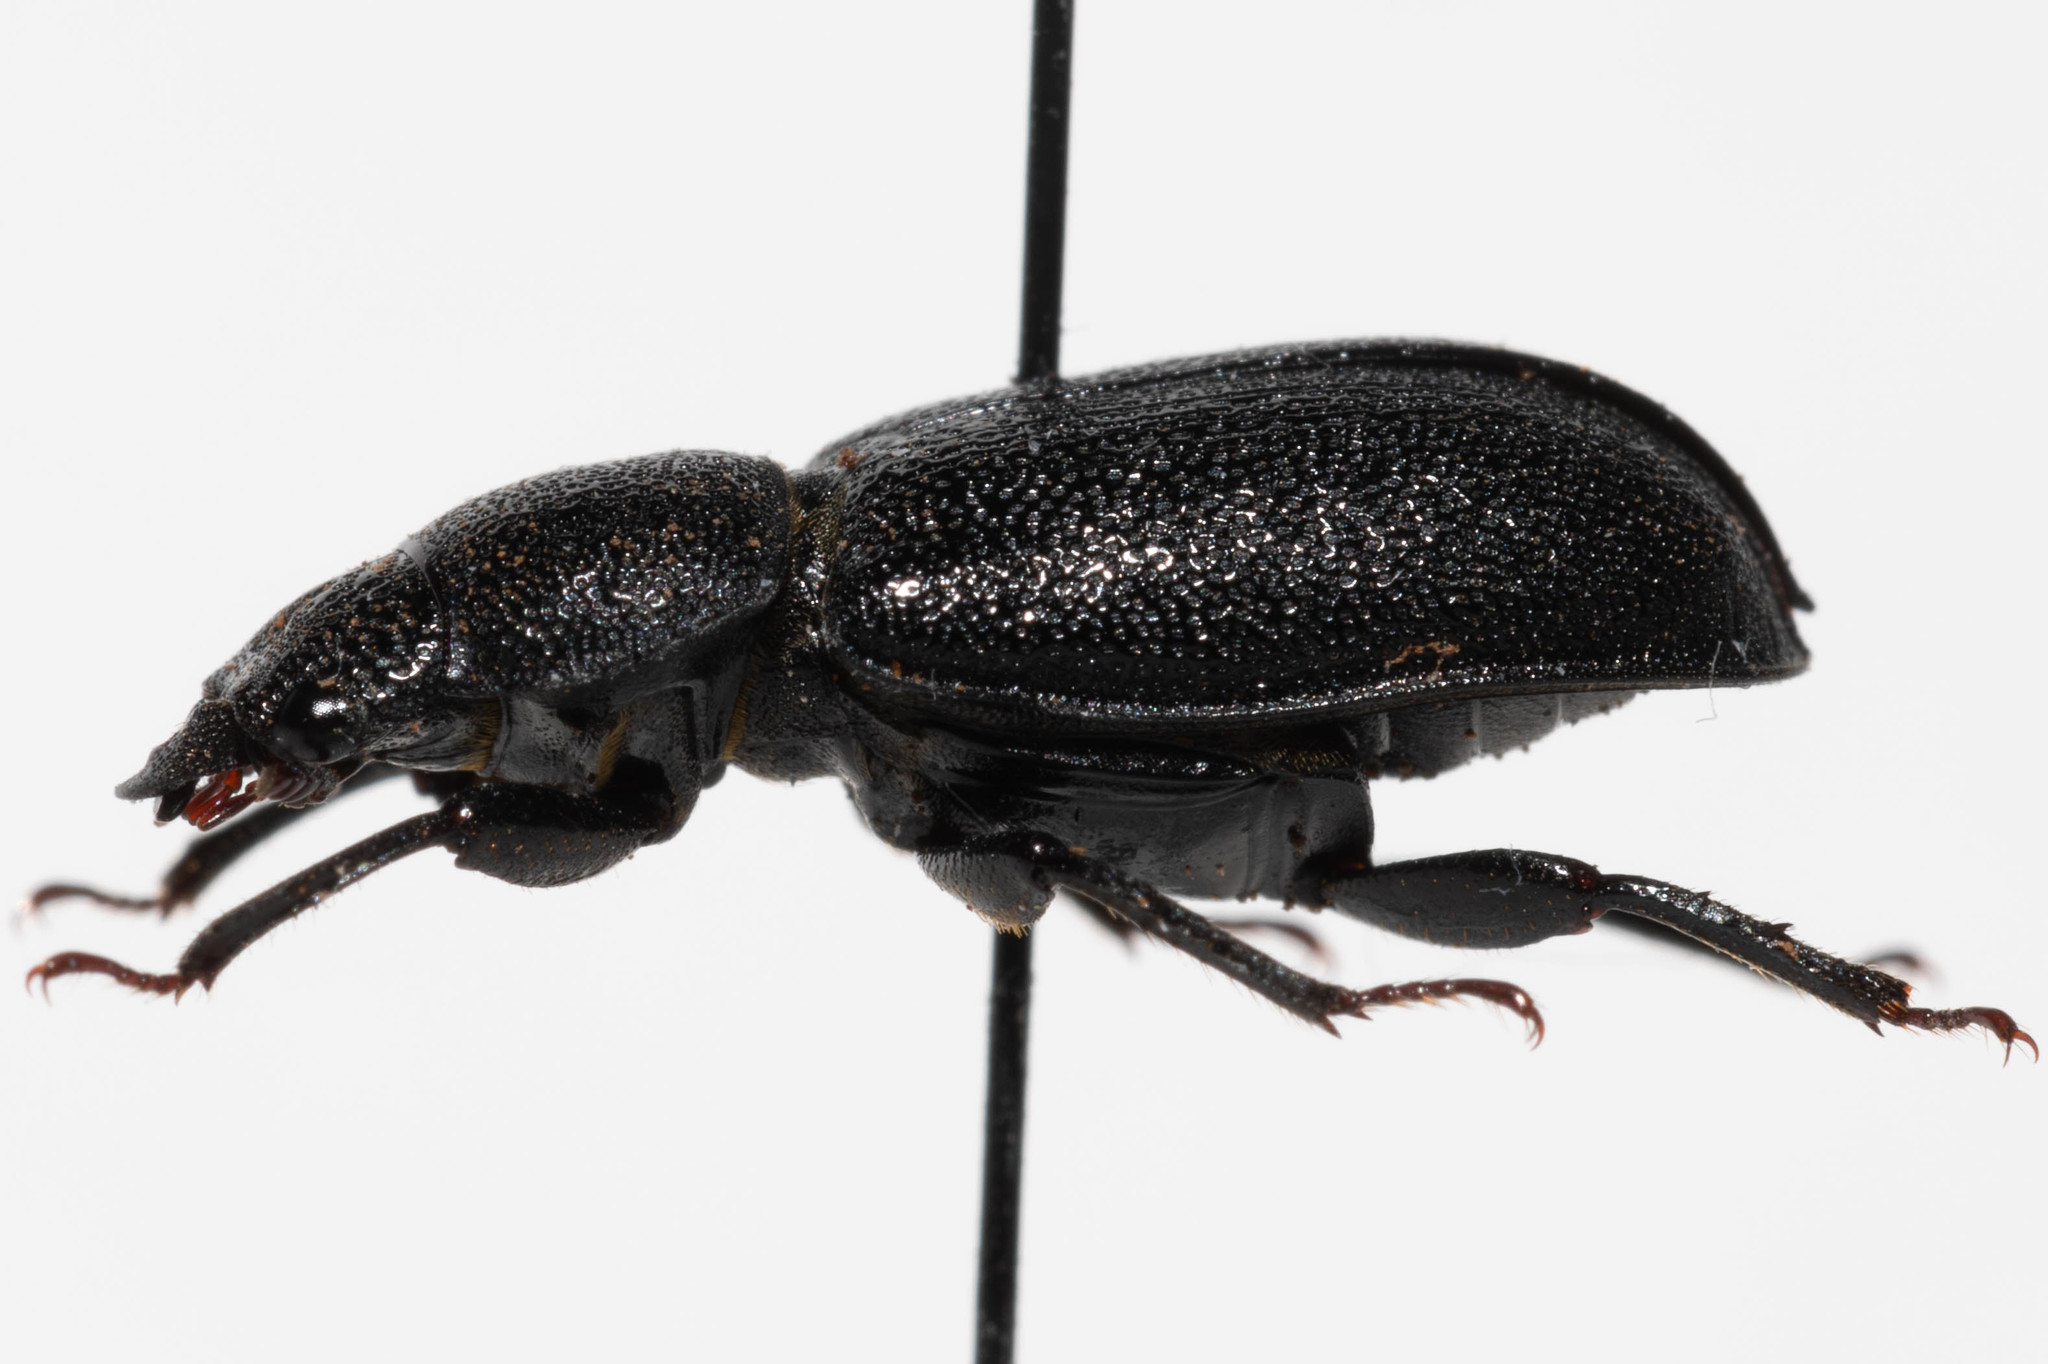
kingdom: Animalia
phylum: Arthropoda
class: Insecta
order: Coleoptera
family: Lucanidae
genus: Ceruchus
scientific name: Ceruchus punctatus
